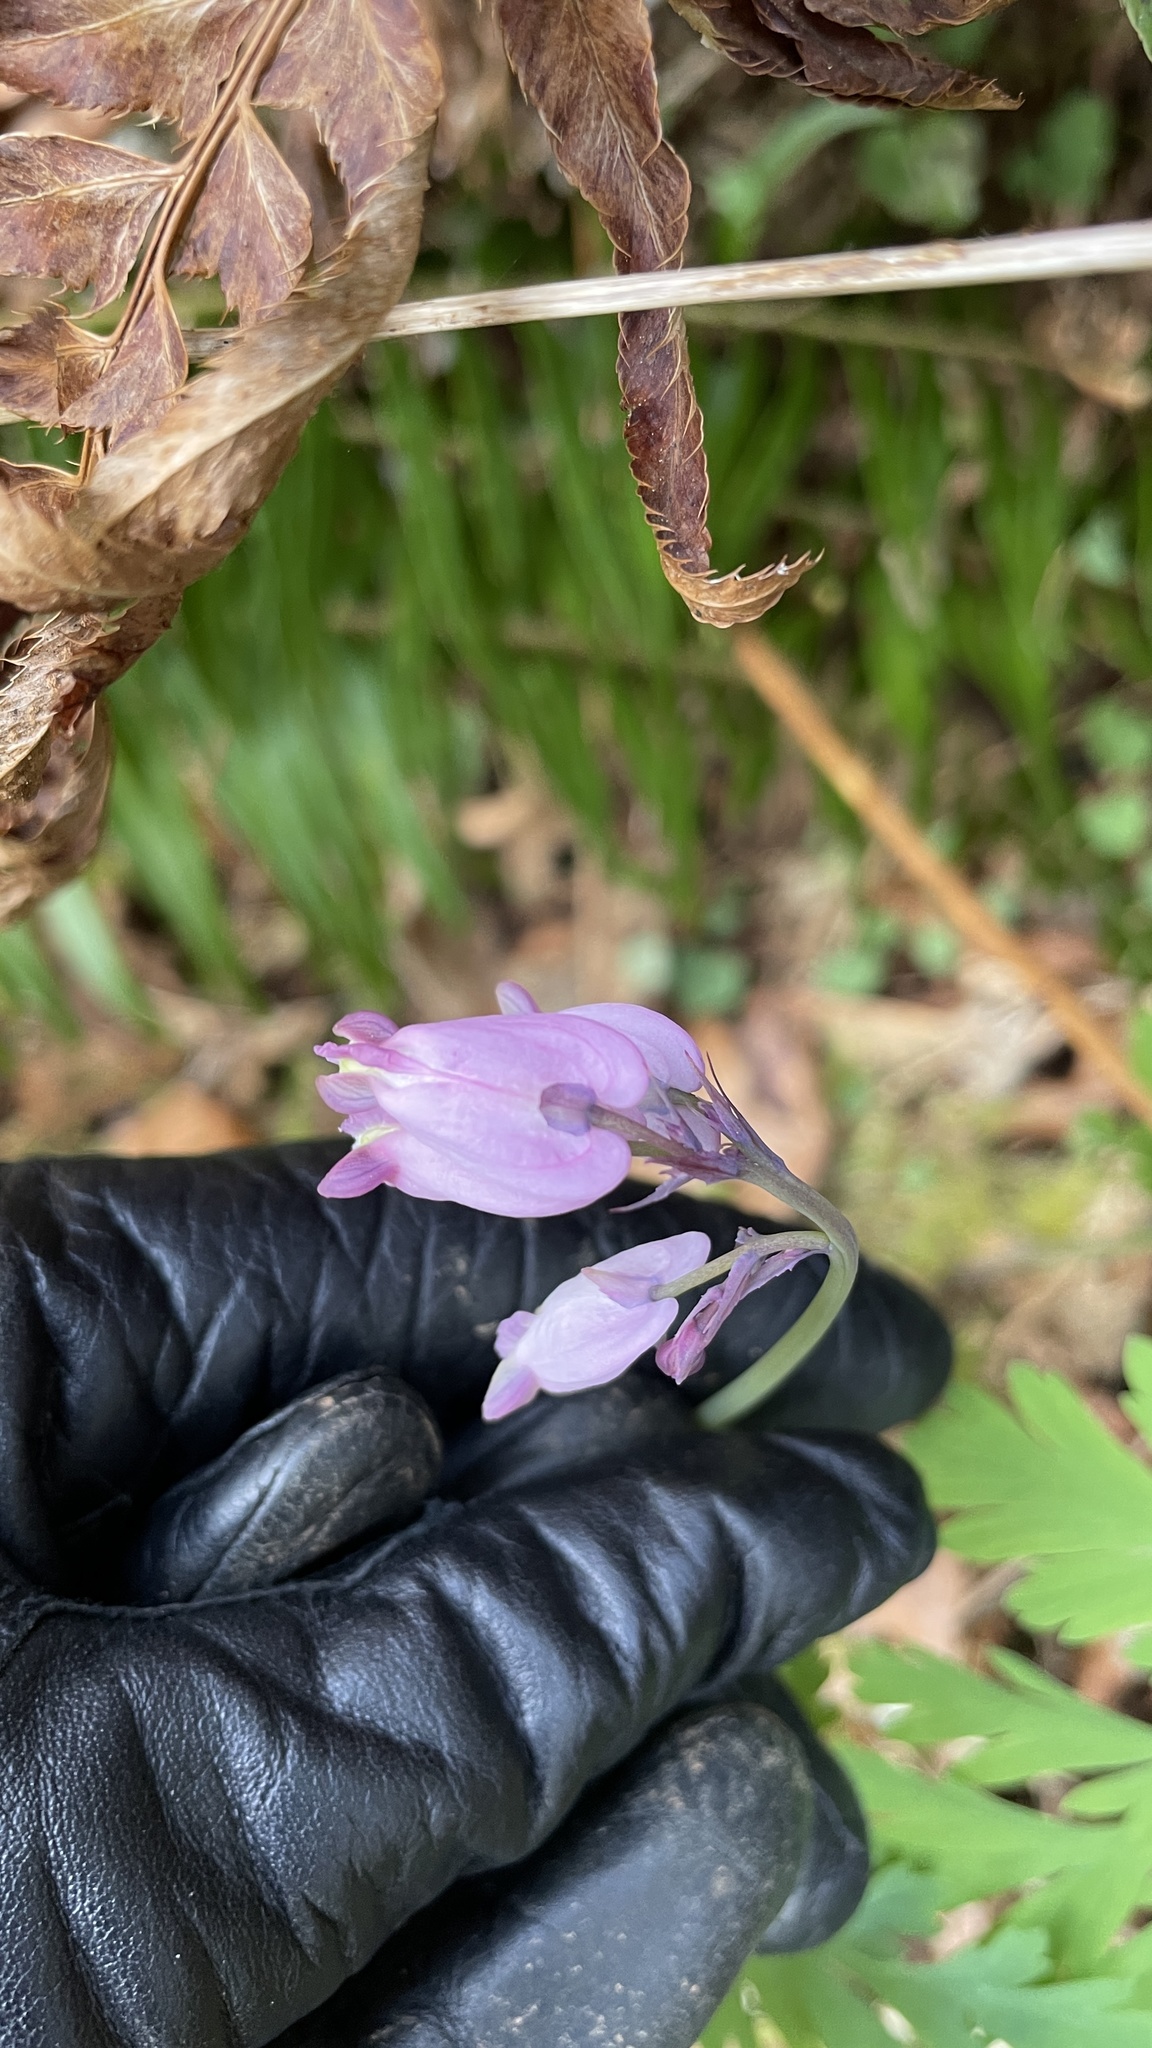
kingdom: Plantae
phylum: Tracheophyta
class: Magnoliopsida
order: Ranunculales
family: Papaveraceae
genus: Dicentra
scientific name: Dicentra formosa
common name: Bleeding-heart
